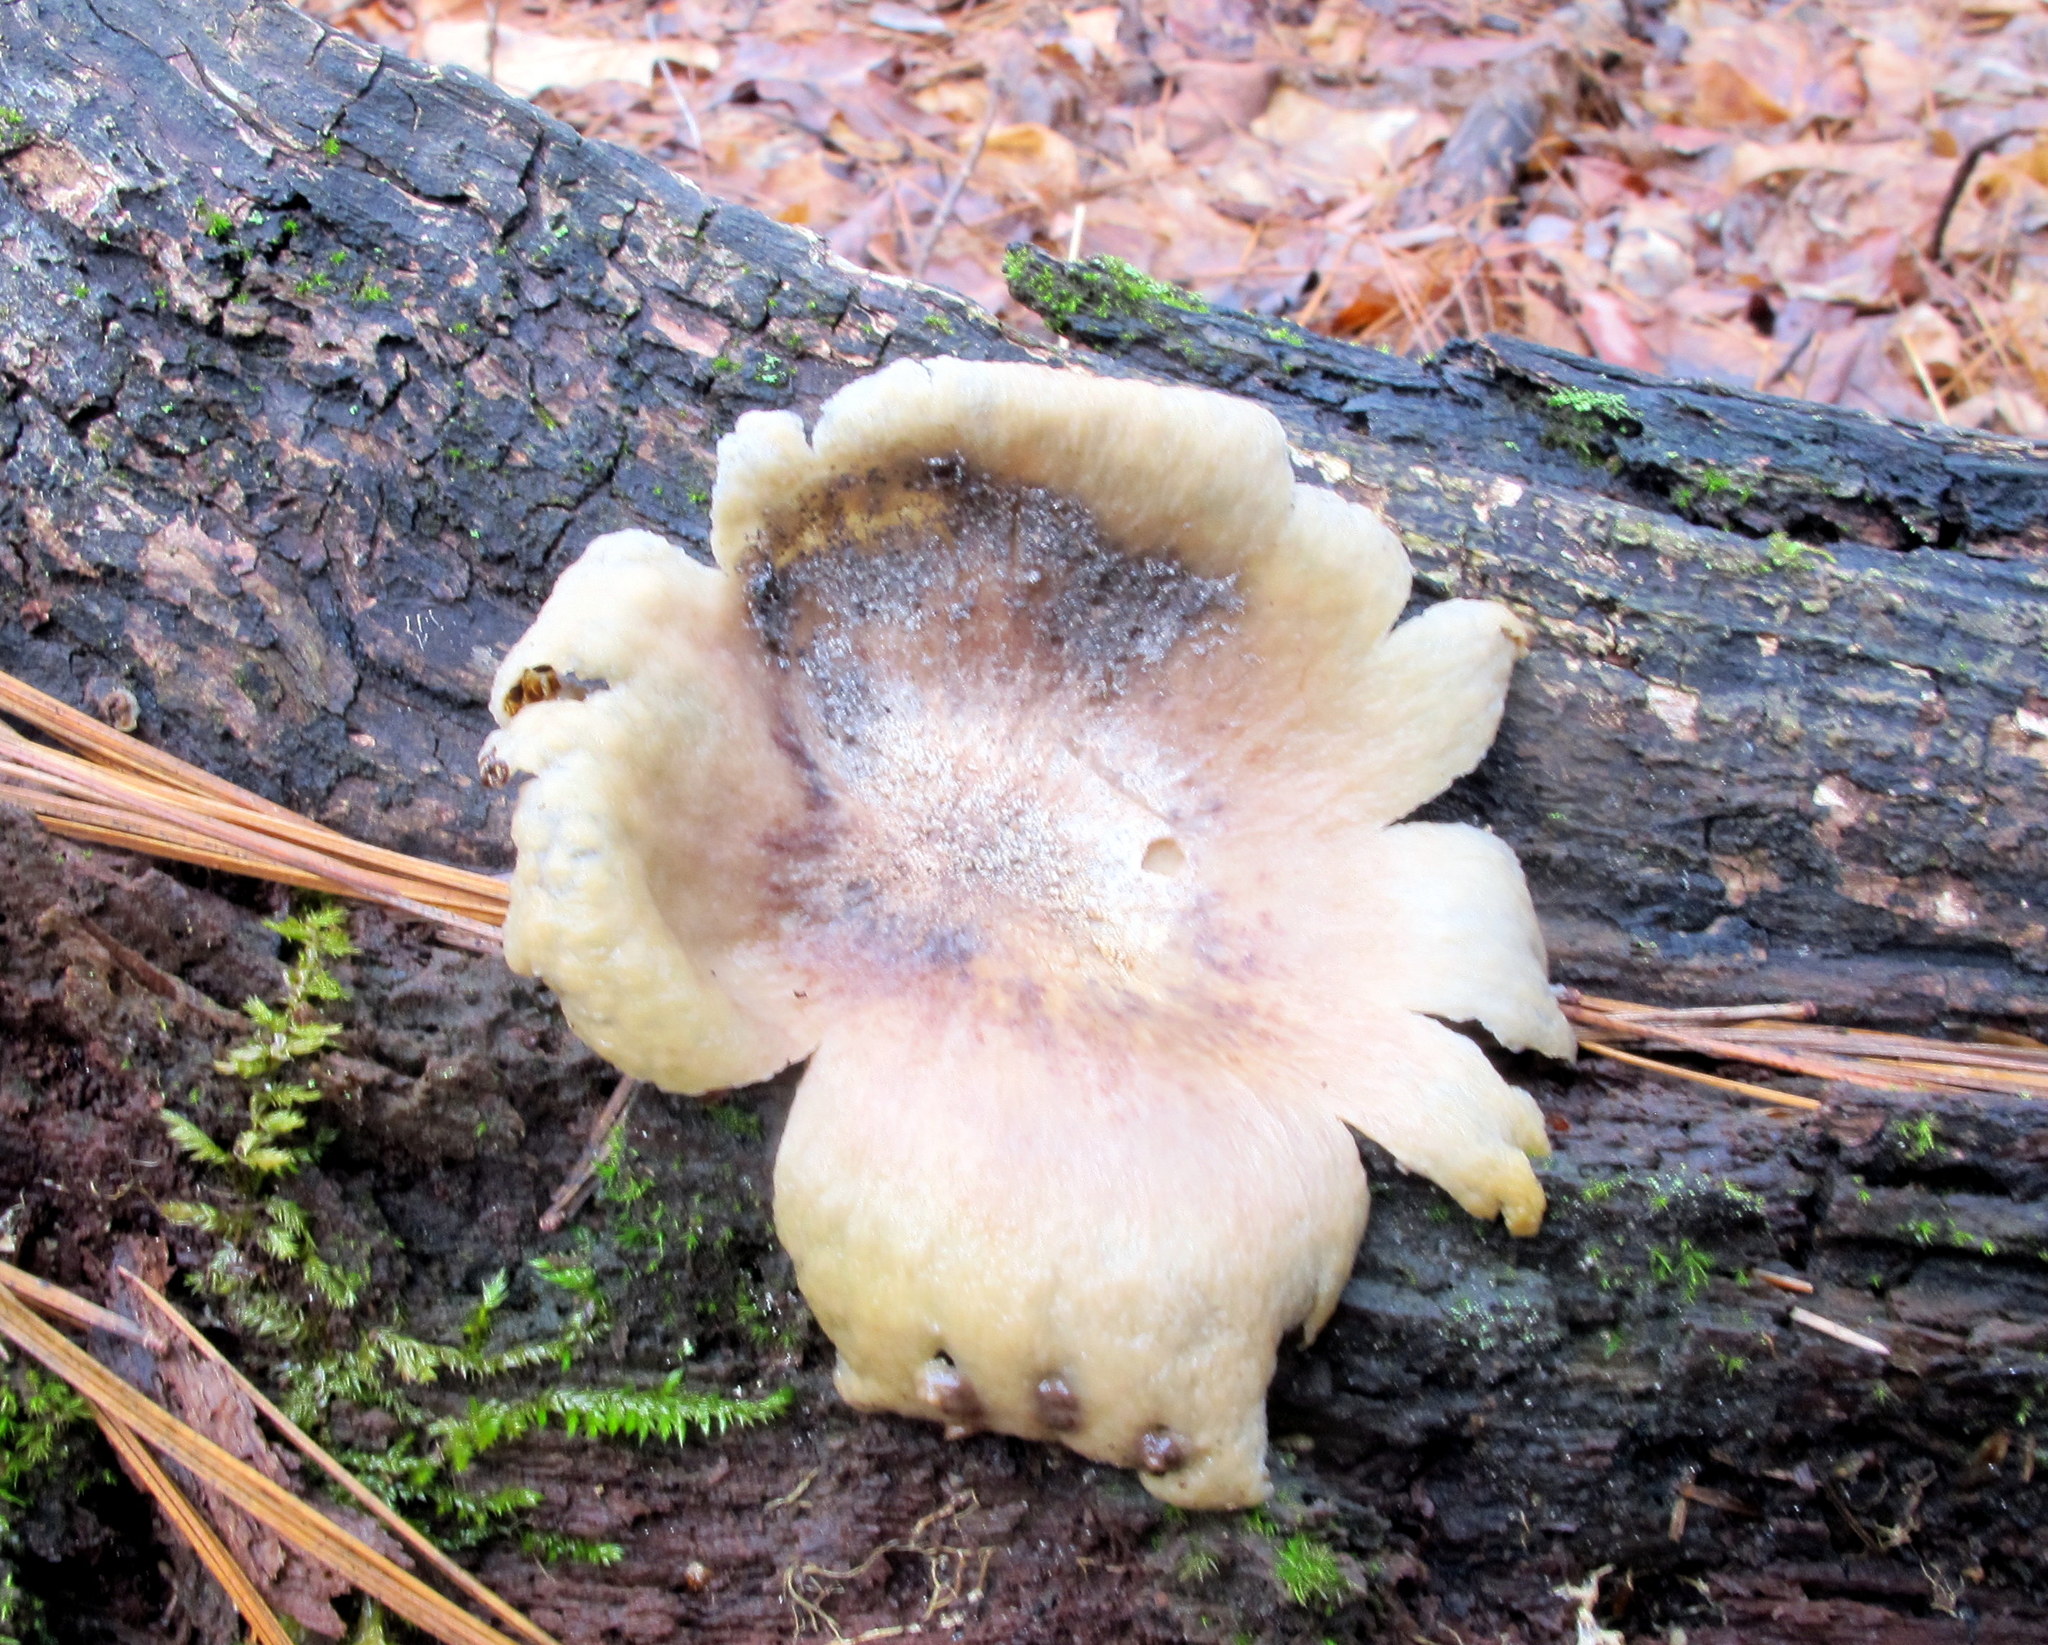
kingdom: Fungi
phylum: Basidiomycota
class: Agaricomycetes
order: Boletales
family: Sclerodermataceae
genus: Scleroderma
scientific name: Scleroderma citrinum
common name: Common earthball
